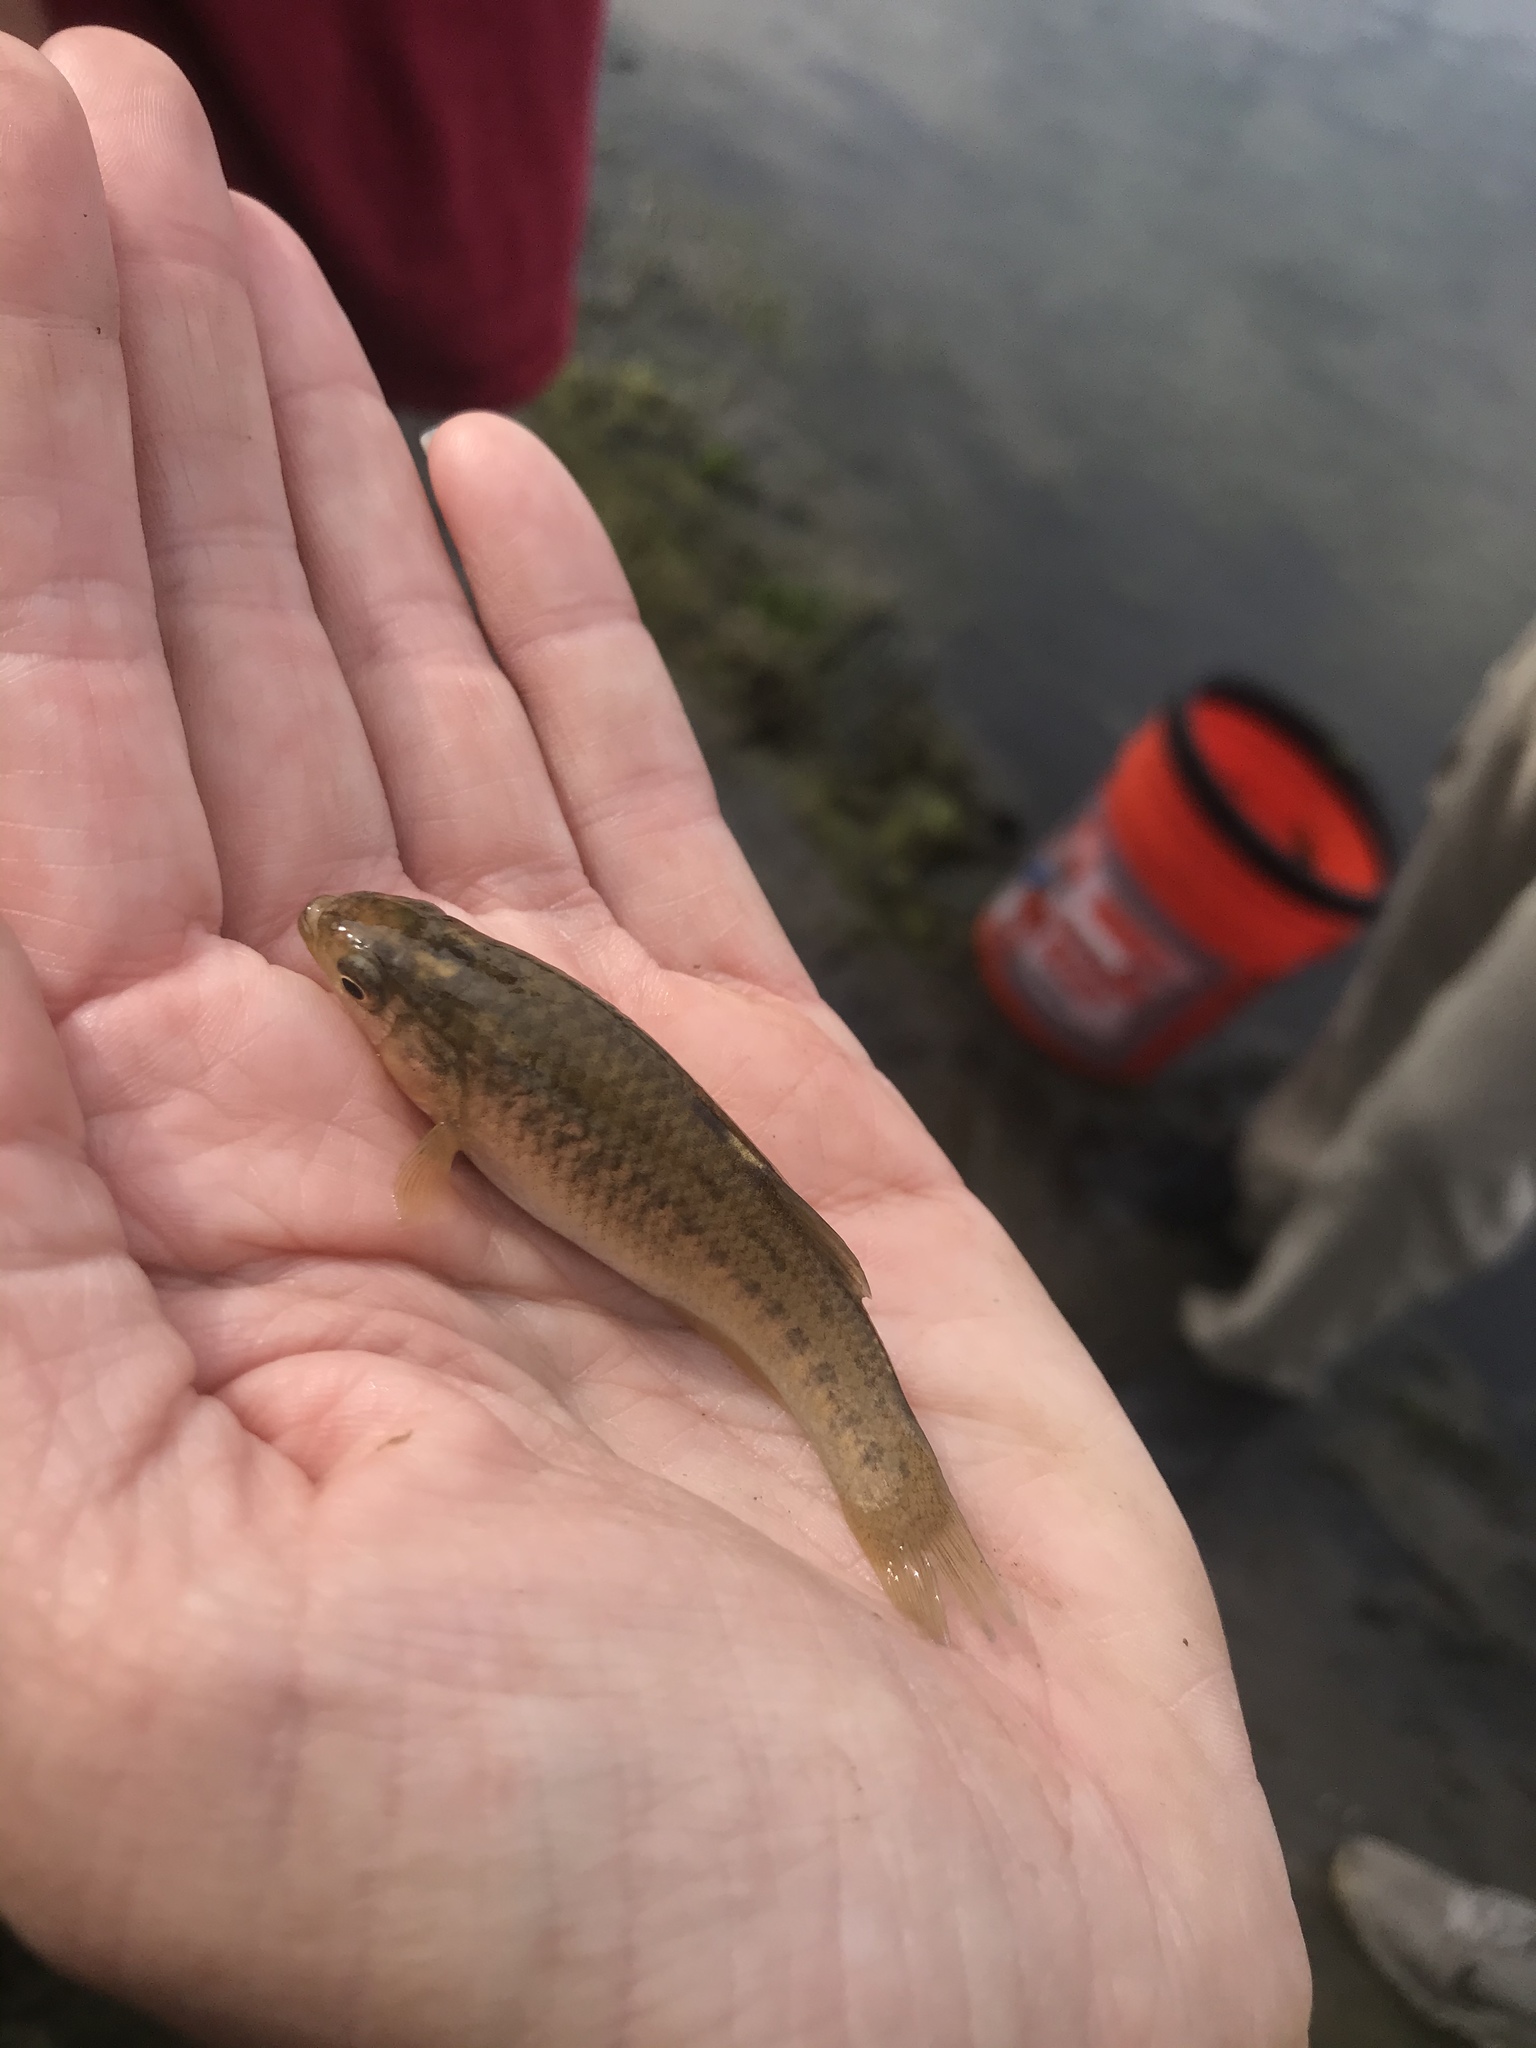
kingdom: Animalia
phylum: Chordata
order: Cyprinodontiformes
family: Fundulidae
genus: Fundulus
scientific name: Fundulus parvipinnis
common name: California killifish
